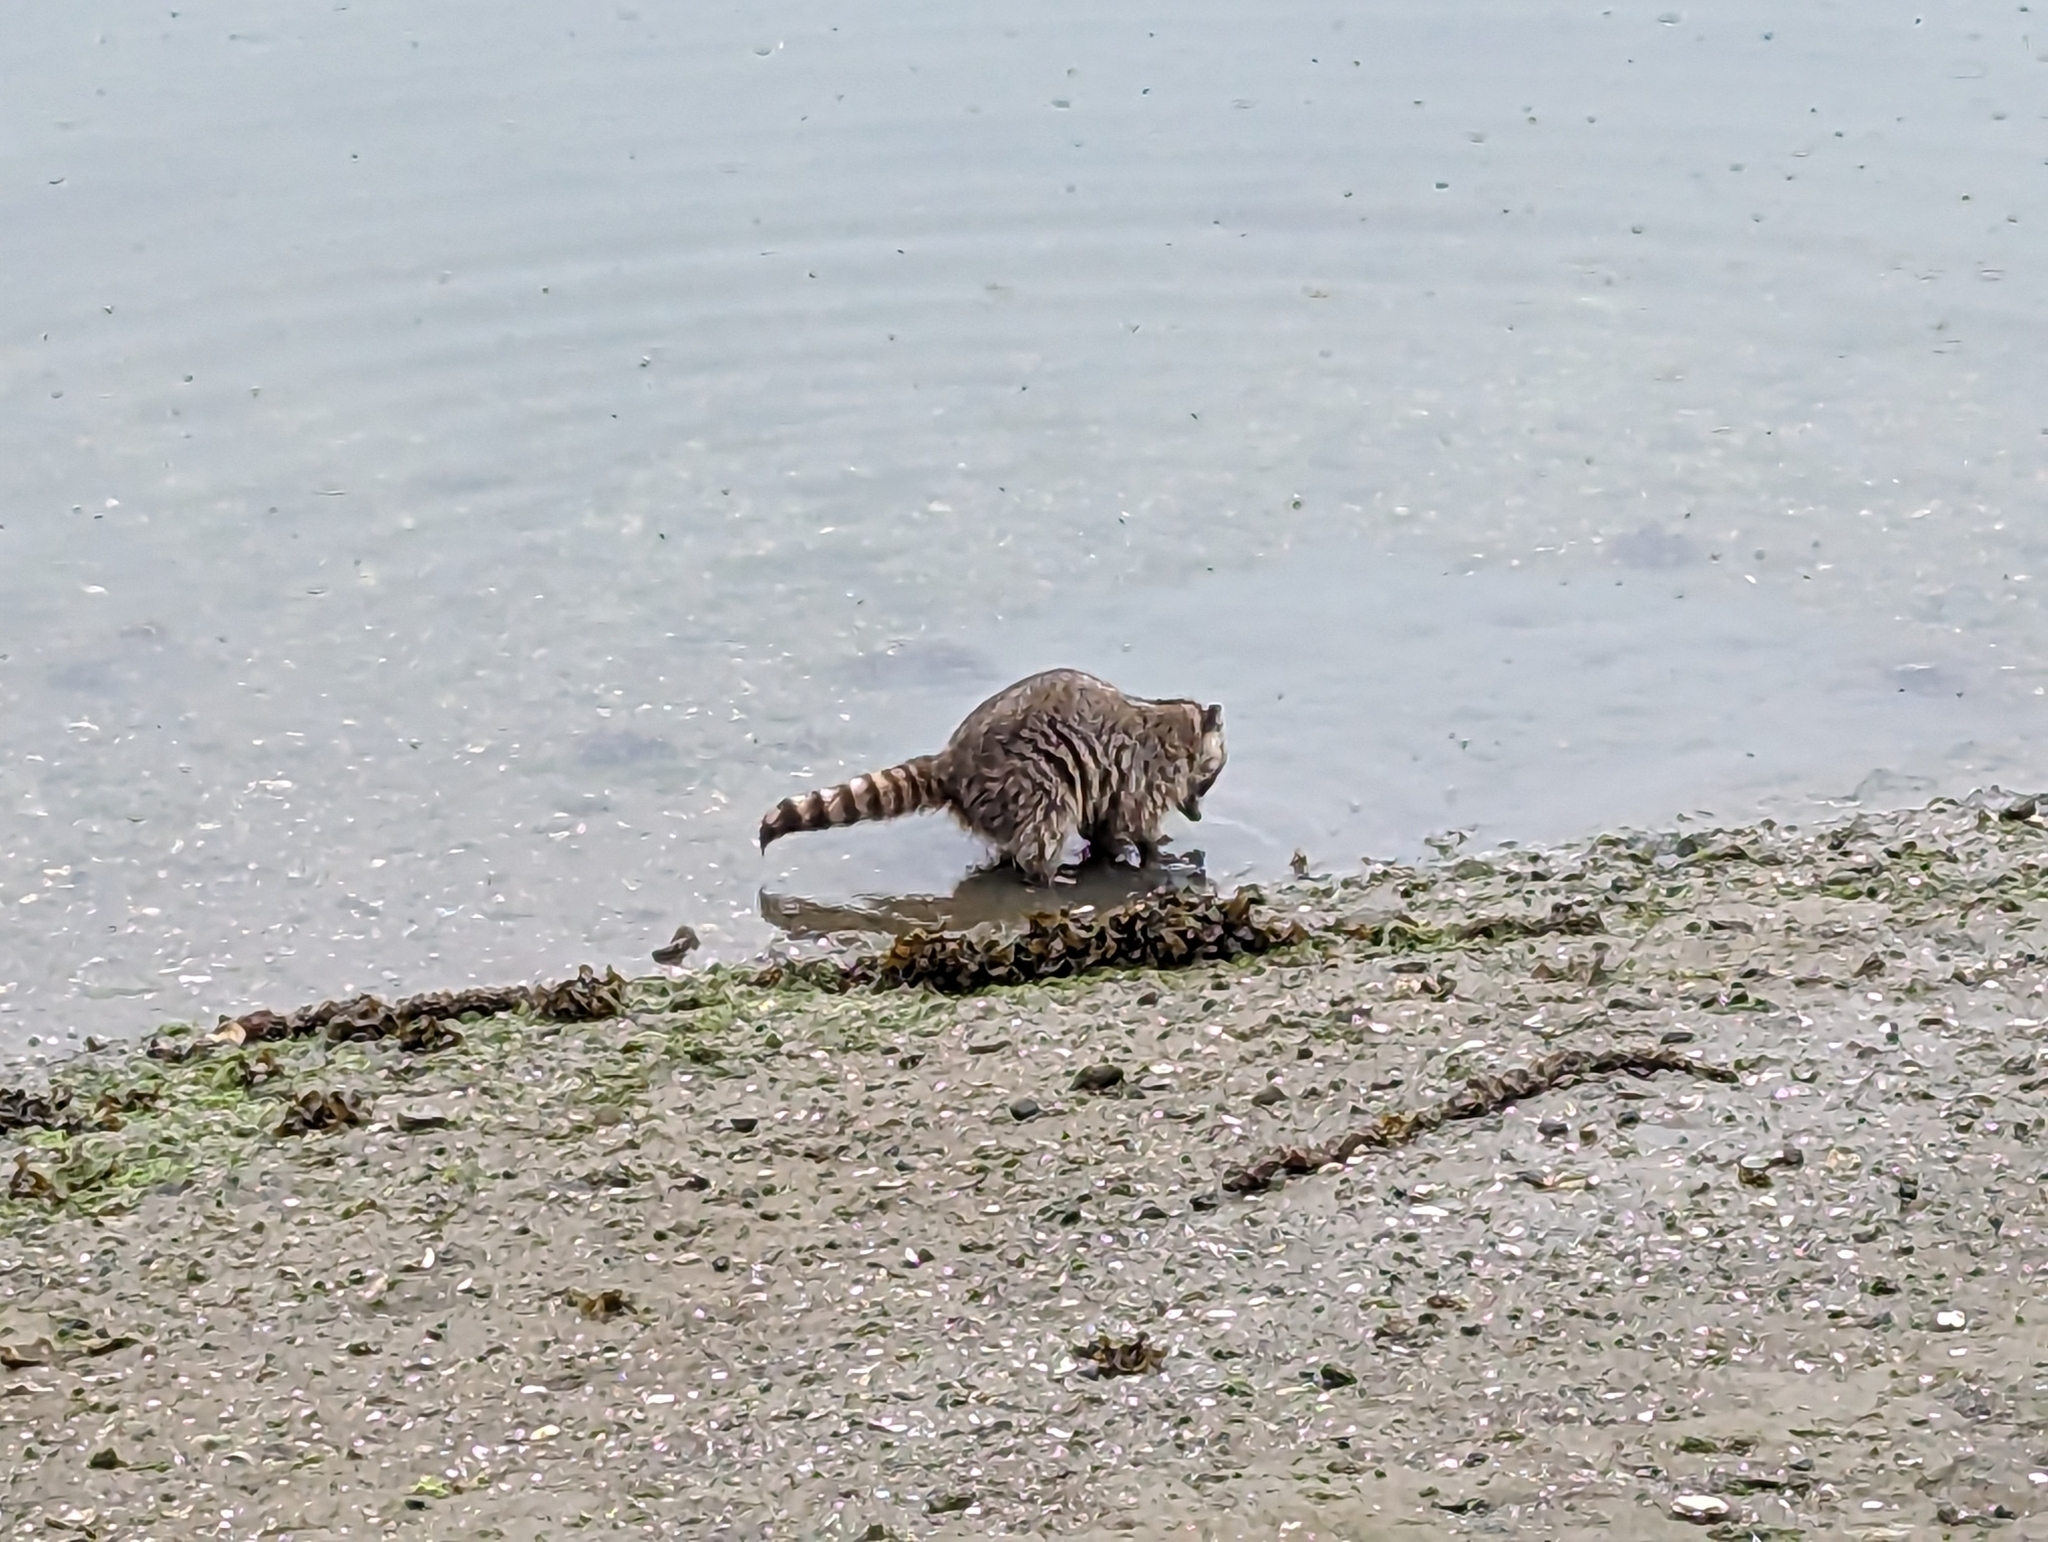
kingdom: Animalia
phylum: Chordata
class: Mammalia
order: Carnivora
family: Procyonidae
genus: Procyon
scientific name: Procyon lotor
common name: Raccoon
